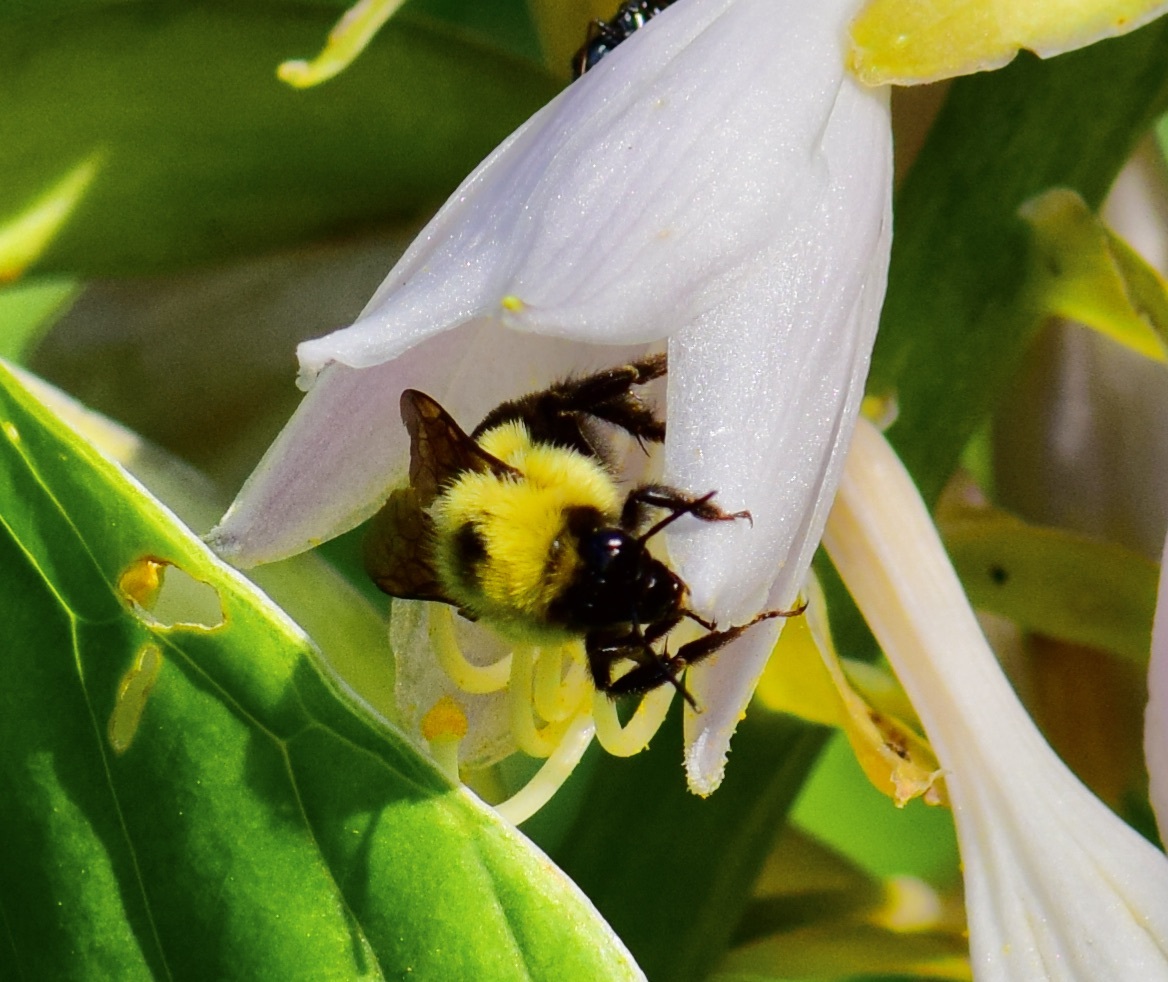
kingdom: Animalia
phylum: Arthropoda
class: Insecta
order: Hymenoptera
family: Apidae
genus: Bombus
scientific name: Bombus bimaculatus
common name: Two-spotted bumble bee
